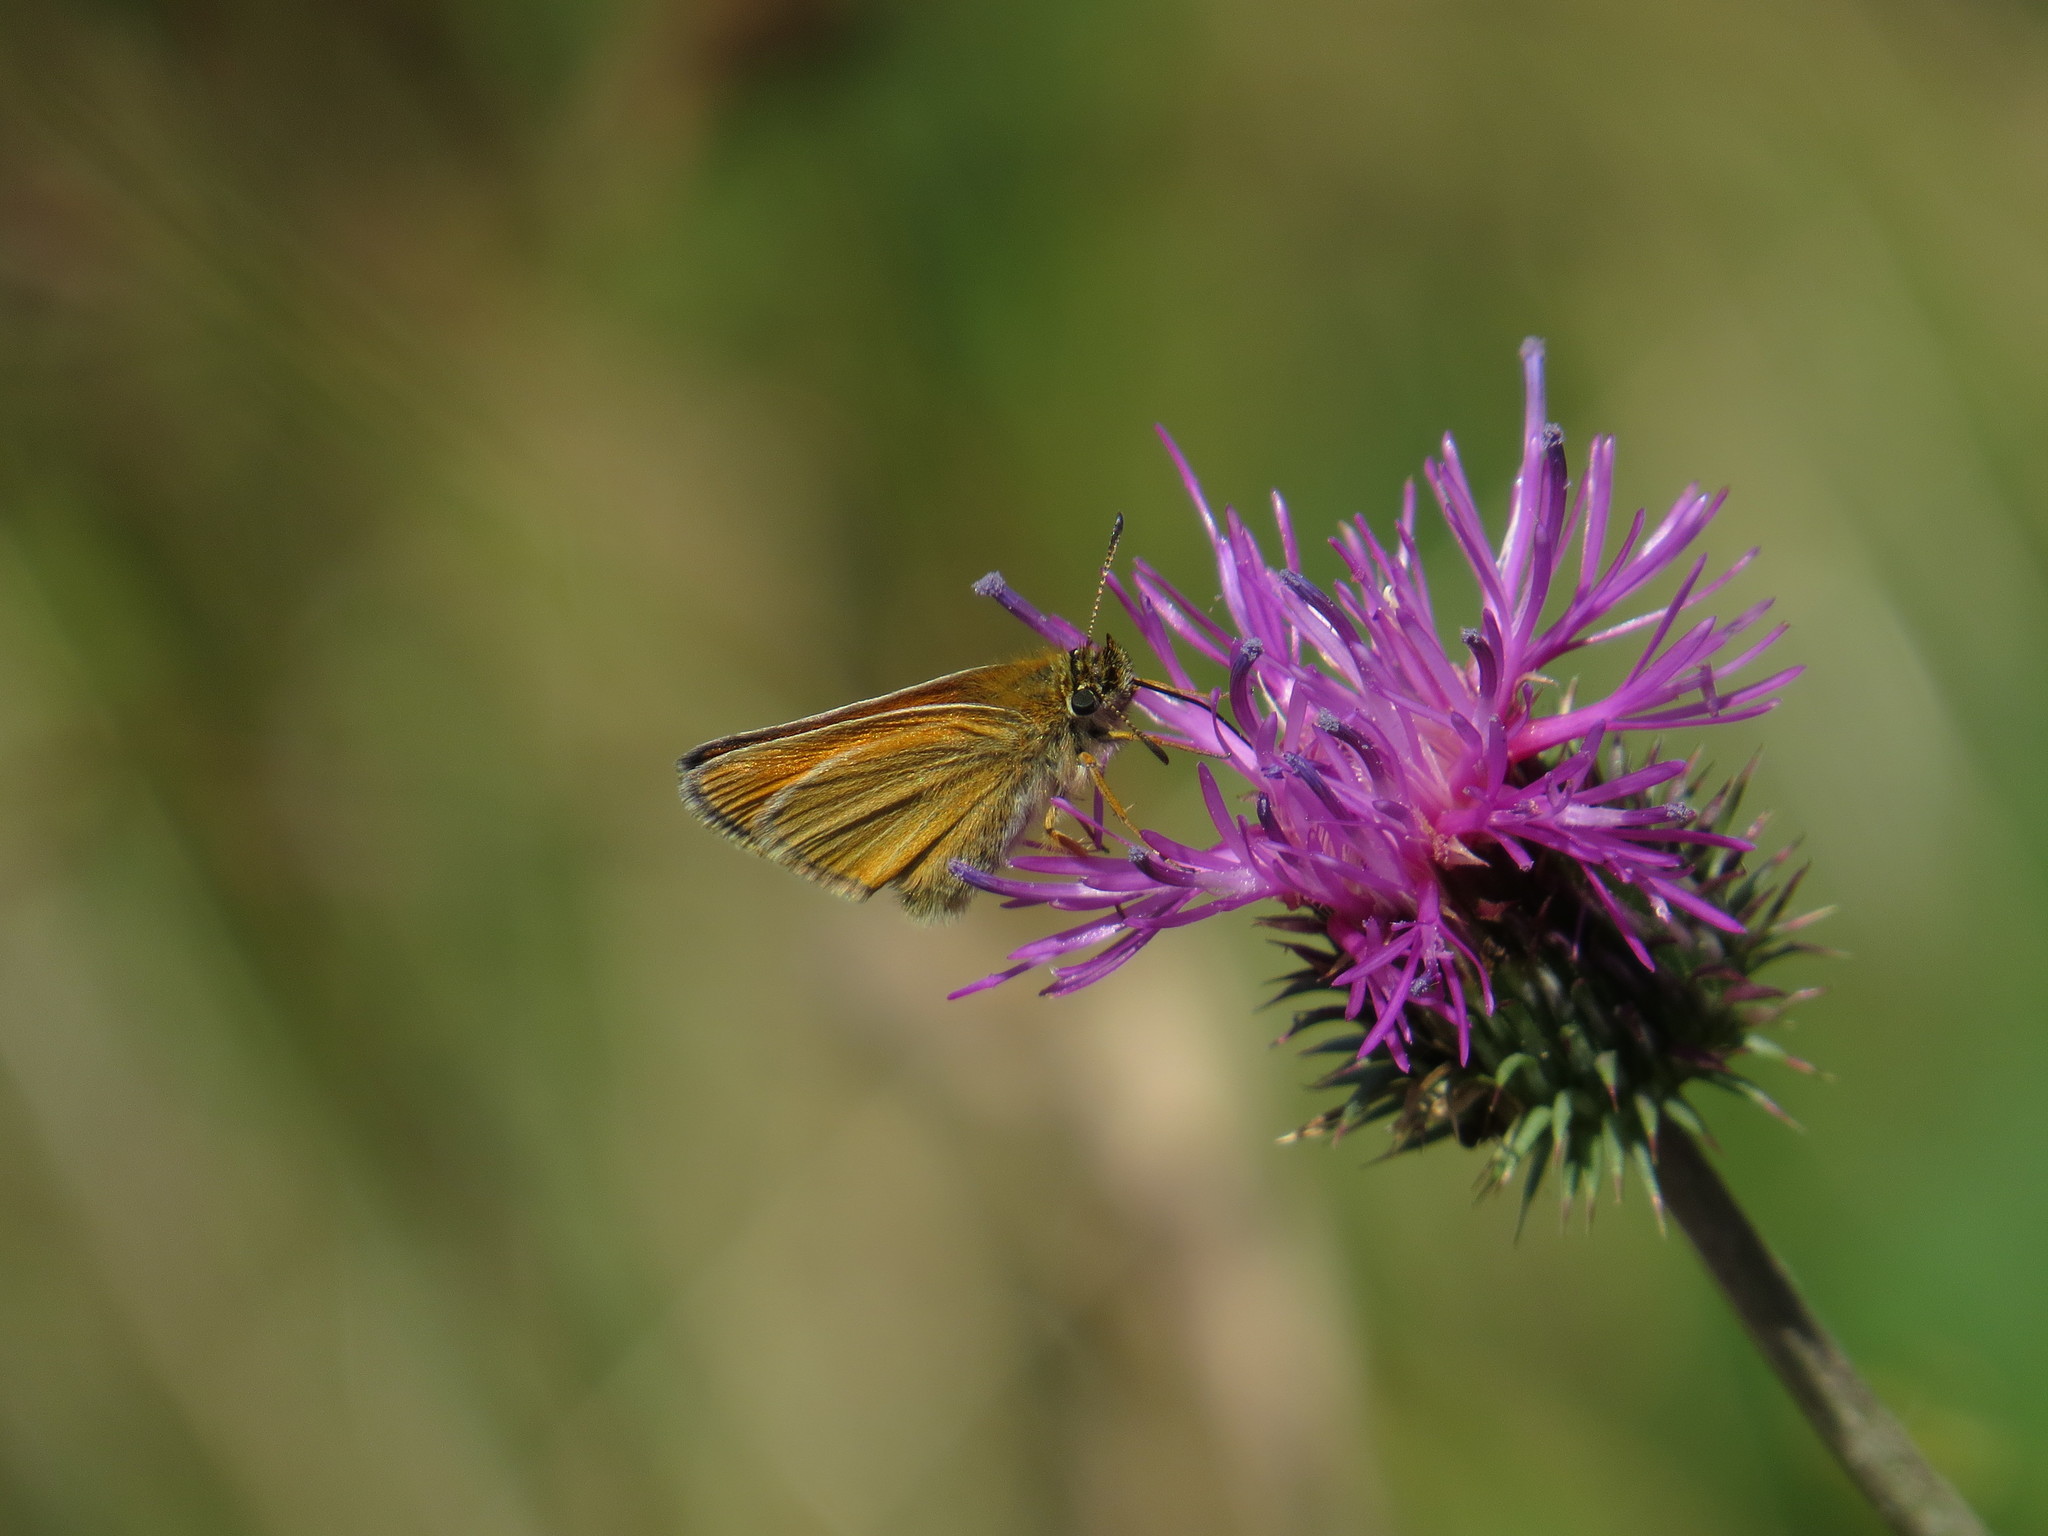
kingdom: Animalia
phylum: Arthropoda
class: Insecta
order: Lepidoptera
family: Hesperiidae
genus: Thymelicus
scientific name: Thymelicus lineola
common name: Essex skipper
